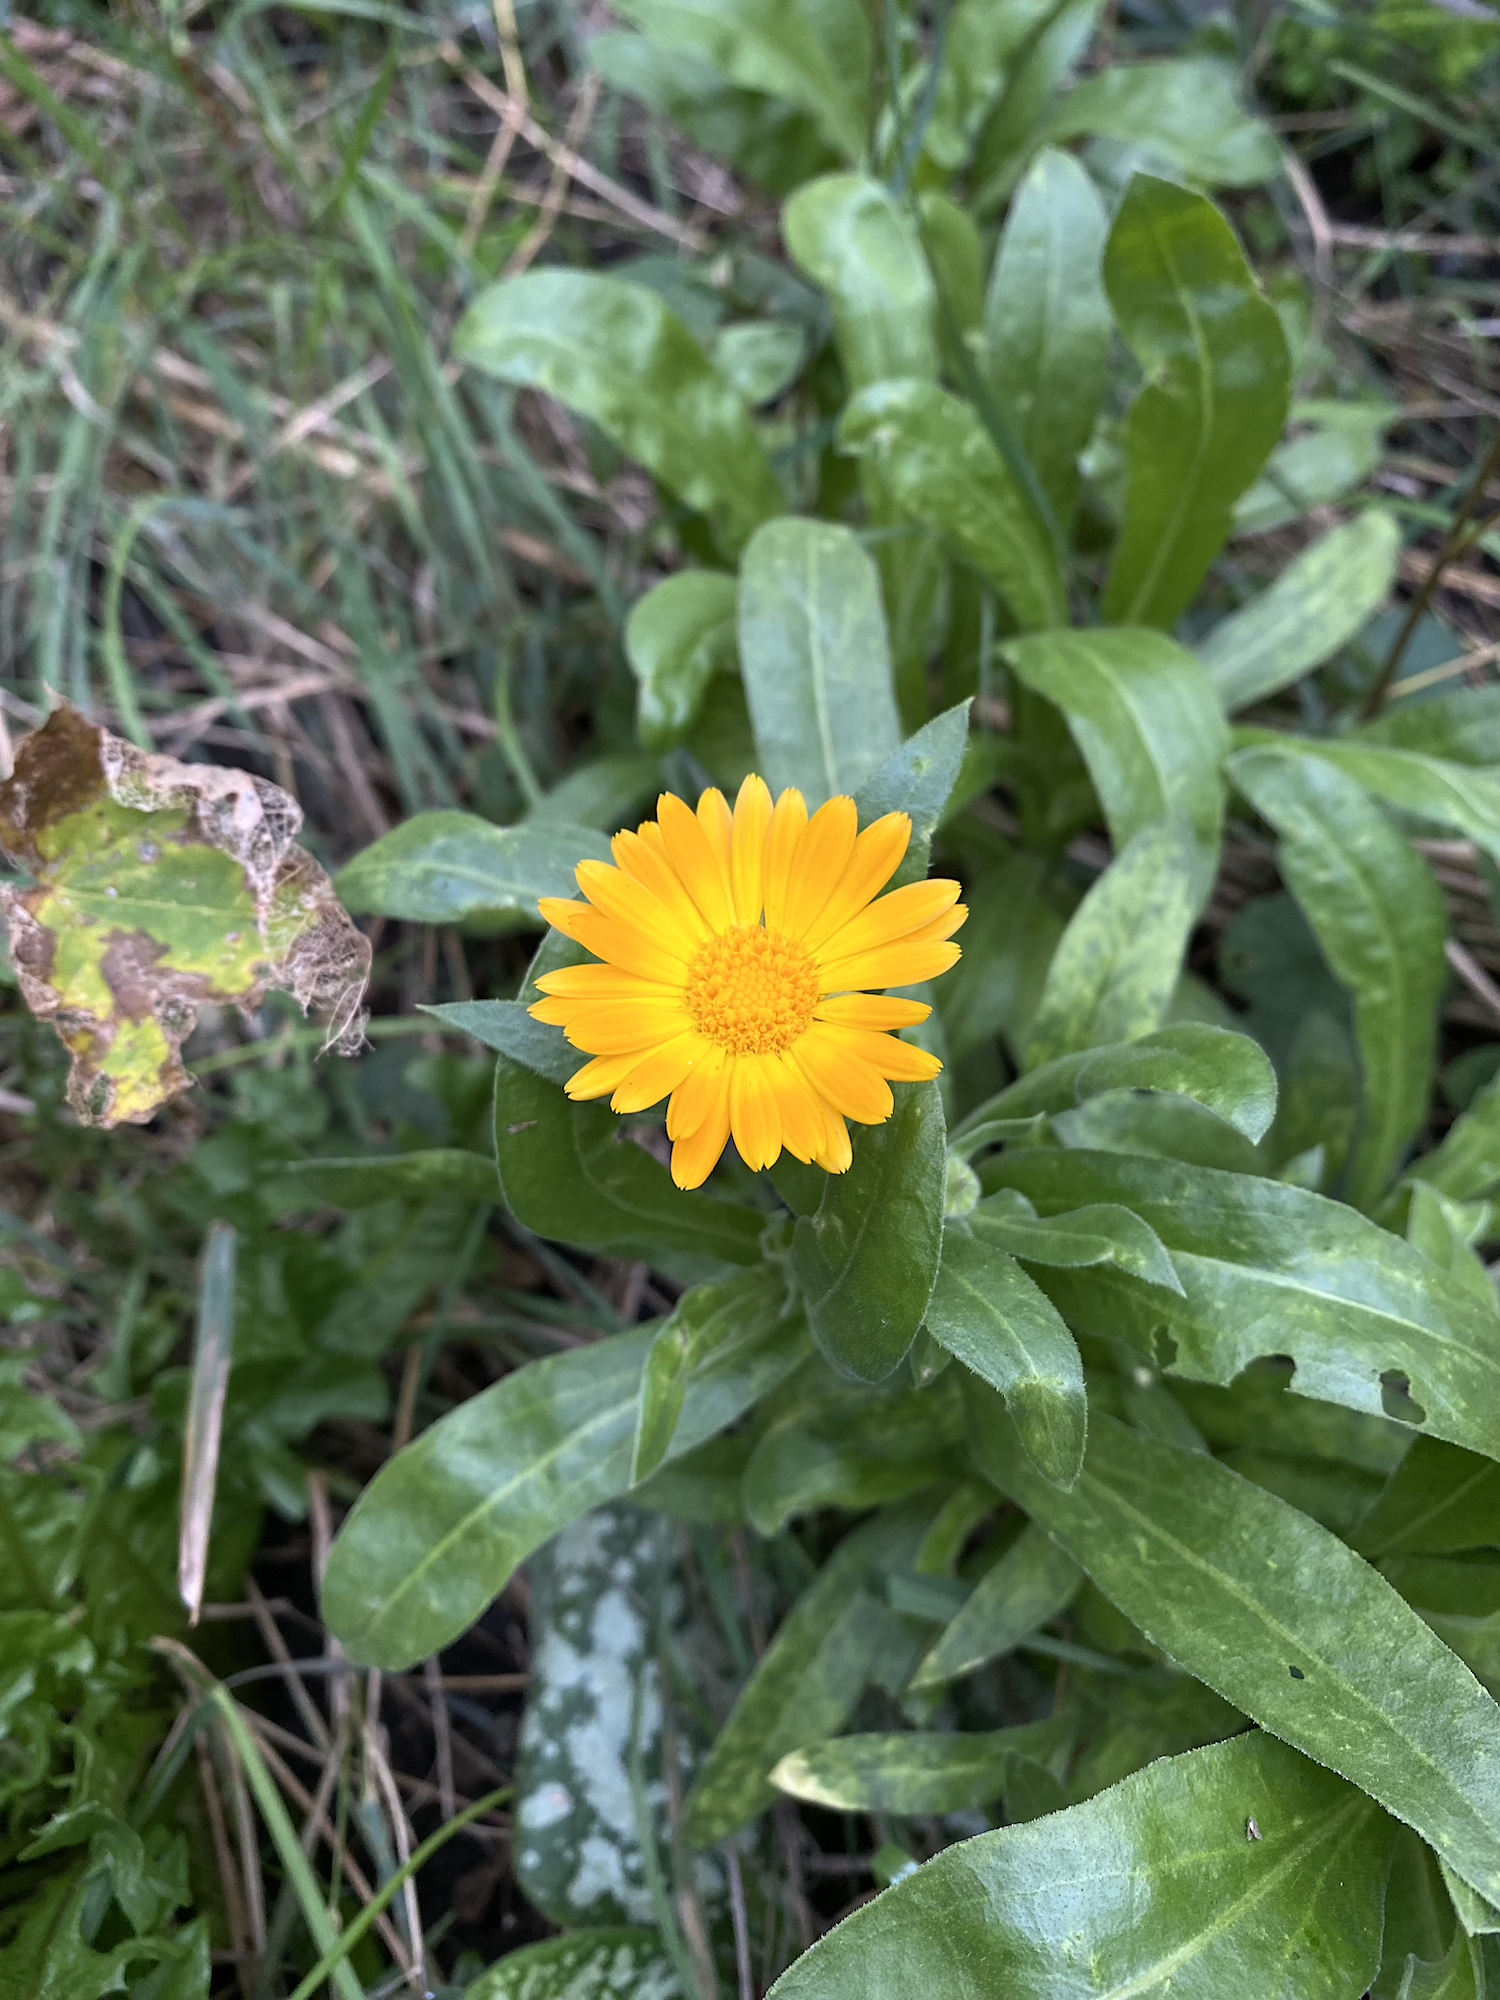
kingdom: Plantae
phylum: Tracheophyta
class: Magnoliopsida
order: Asterales
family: Asteraceae
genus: Calendula
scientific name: Calendula officinalis
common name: Pot marigold
